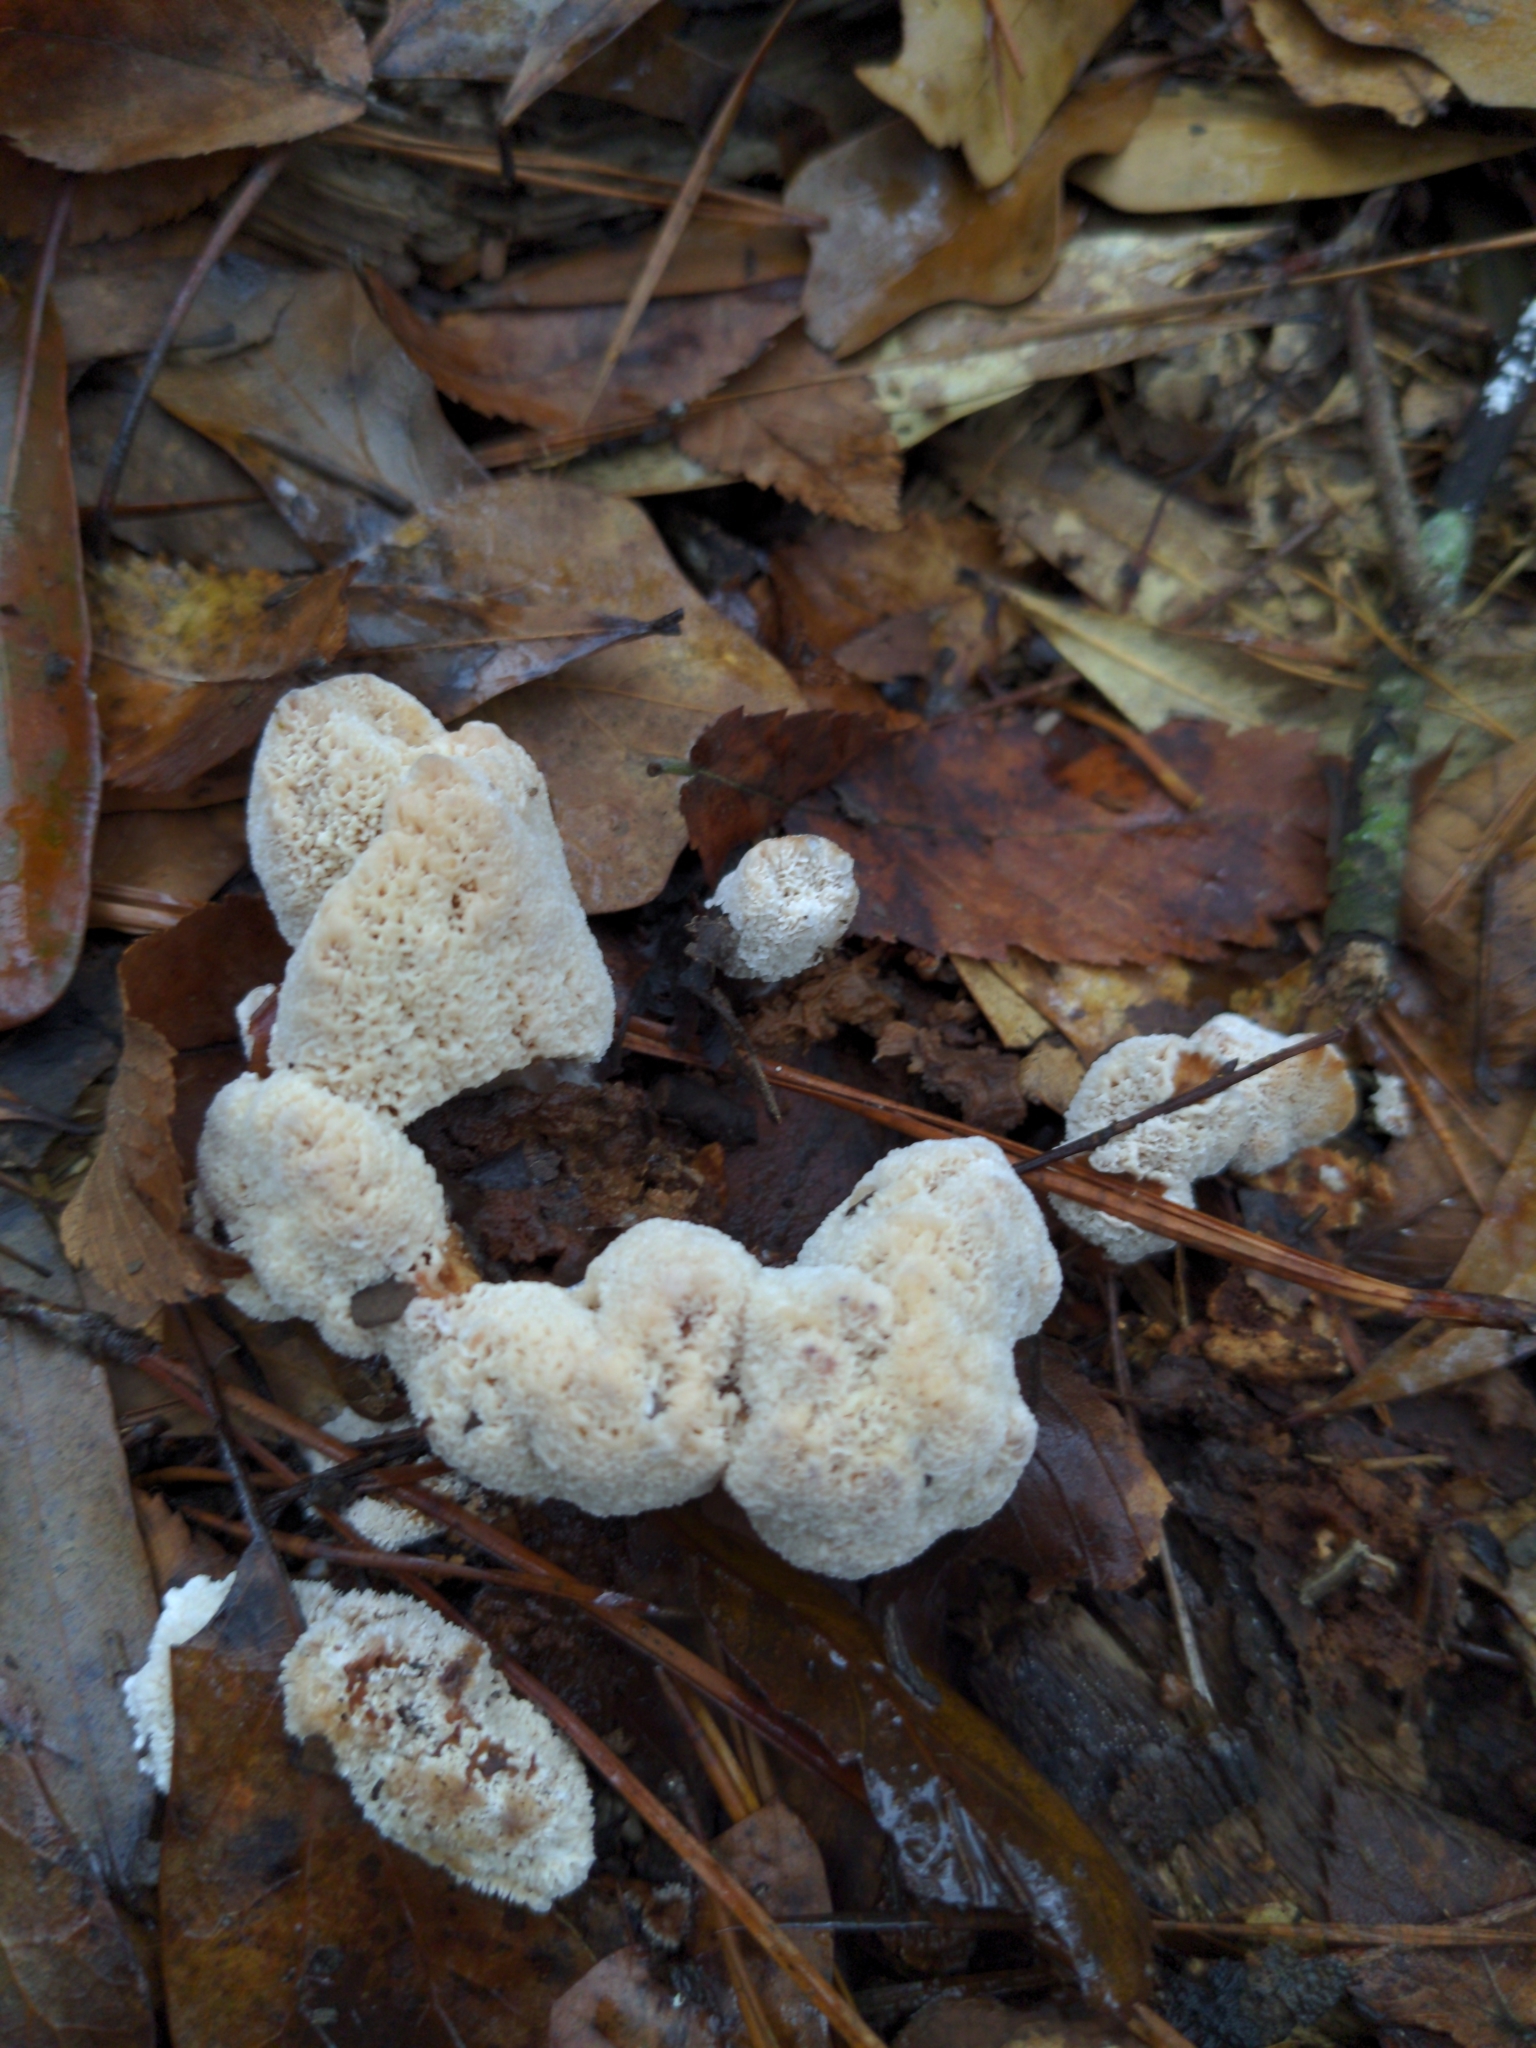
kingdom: Fungi
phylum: Basidiomycota
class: Agaricomycetes
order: Polyporales
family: Podoscyphaceae
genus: Abortiporus
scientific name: Abortiporus biennis
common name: Blushing rosette
